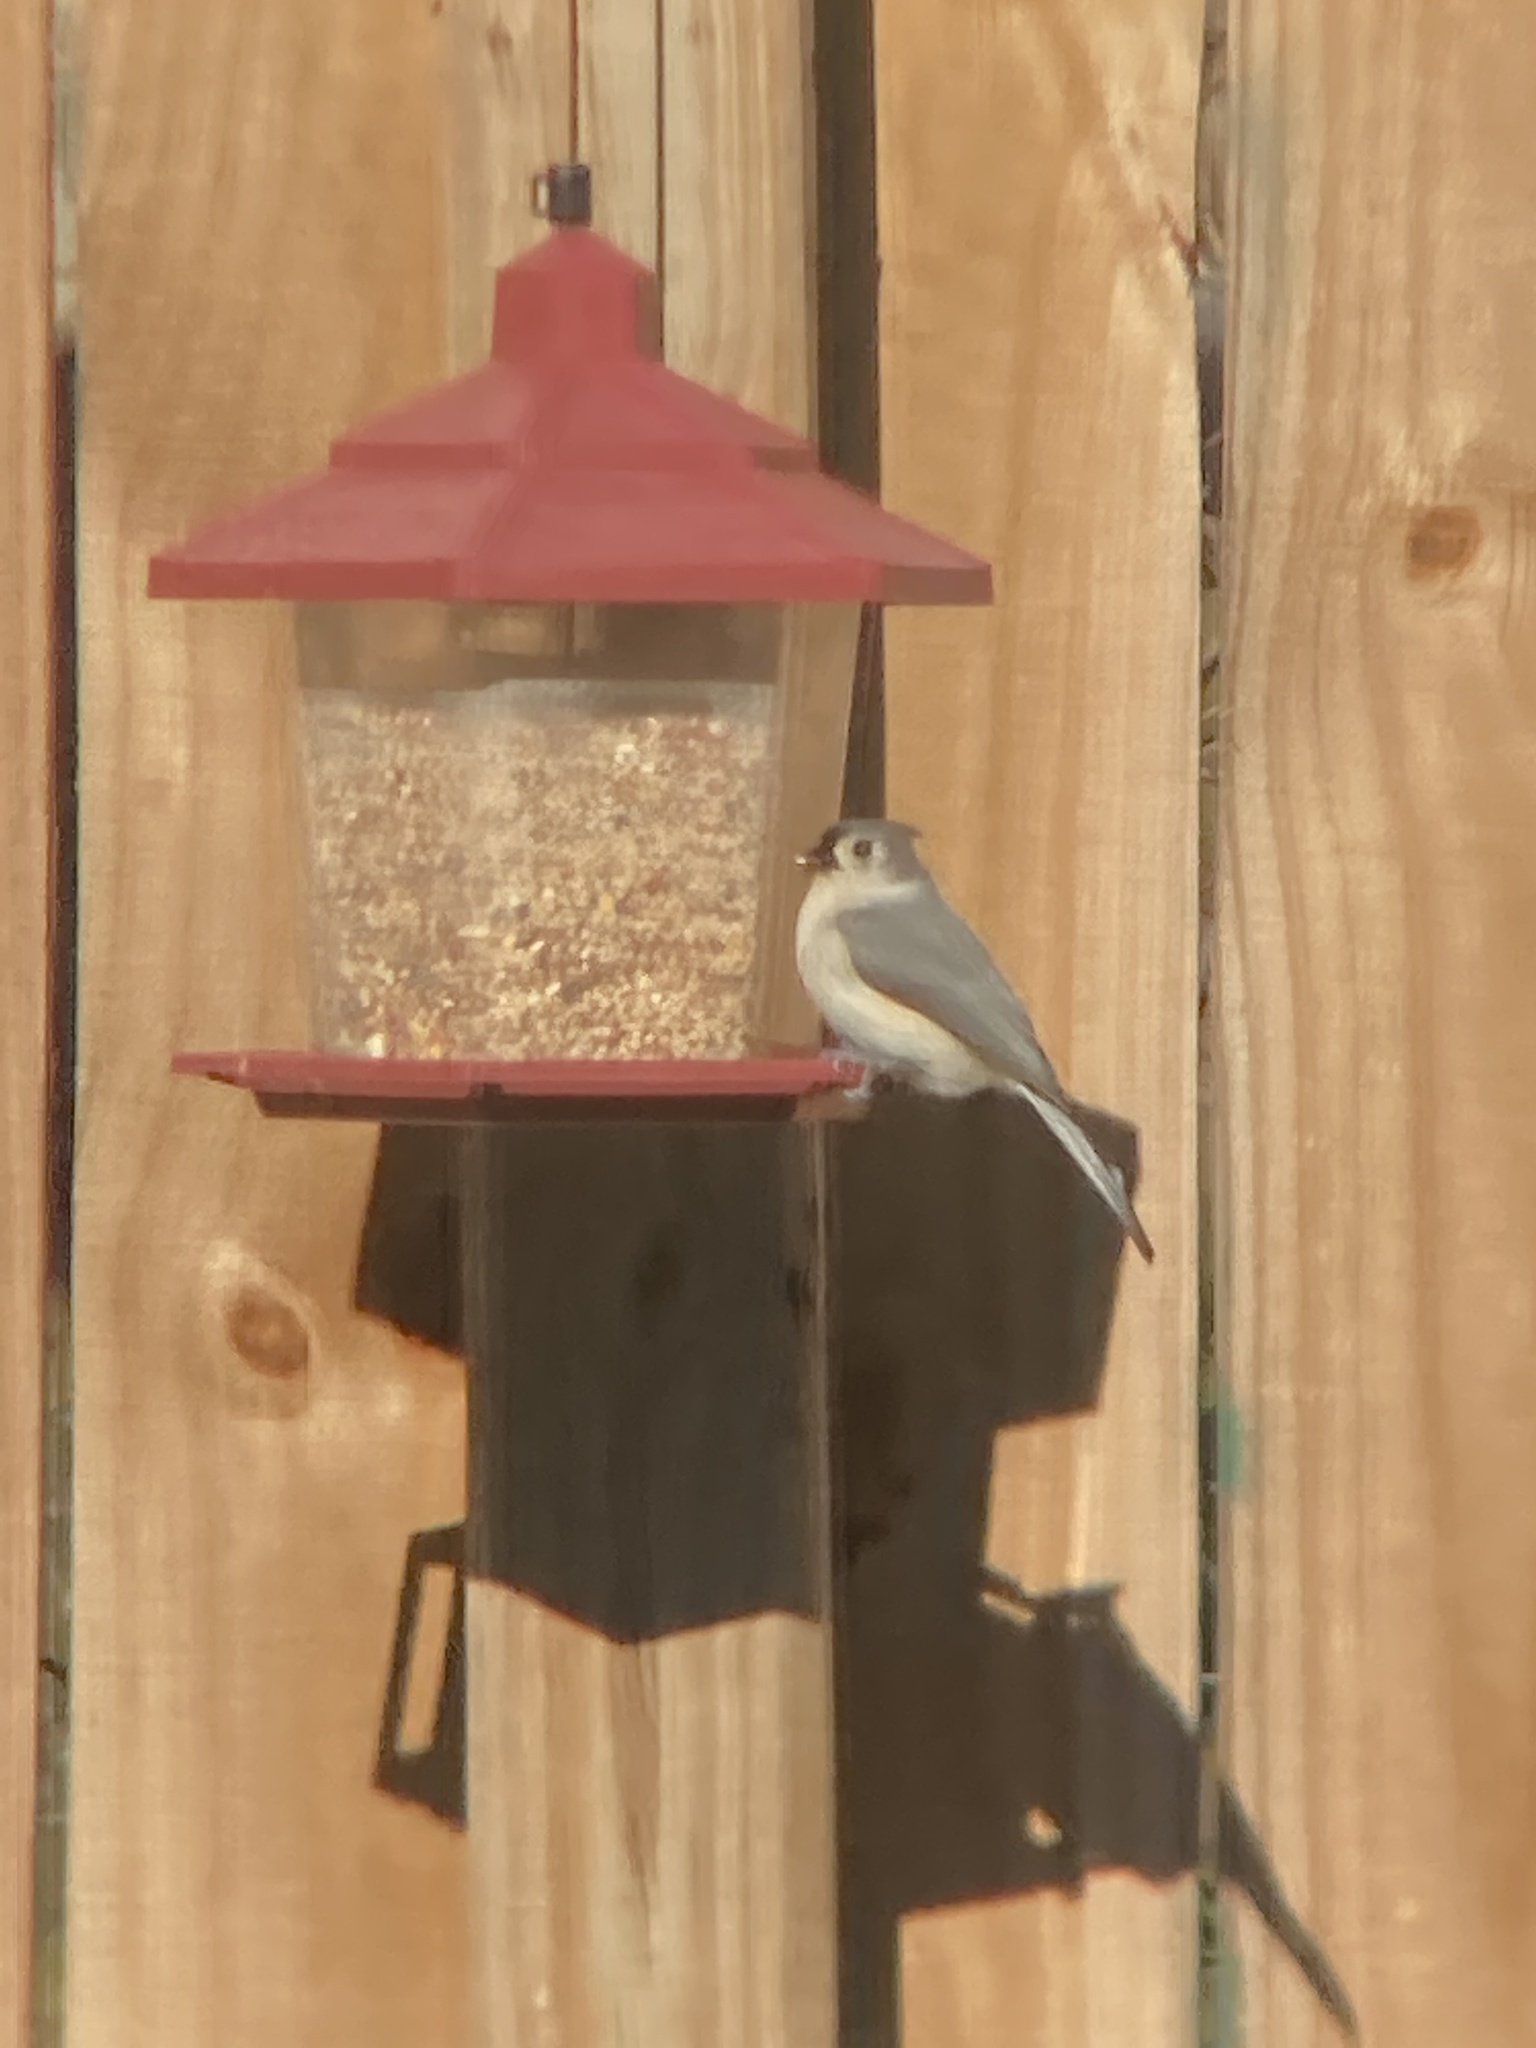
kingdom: Animalia
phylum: Chordata
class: Aves
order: Passeriformes
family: Paridae
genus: Baeolophus
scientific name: Baeolophus bicolor
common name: Tufted titmouse
